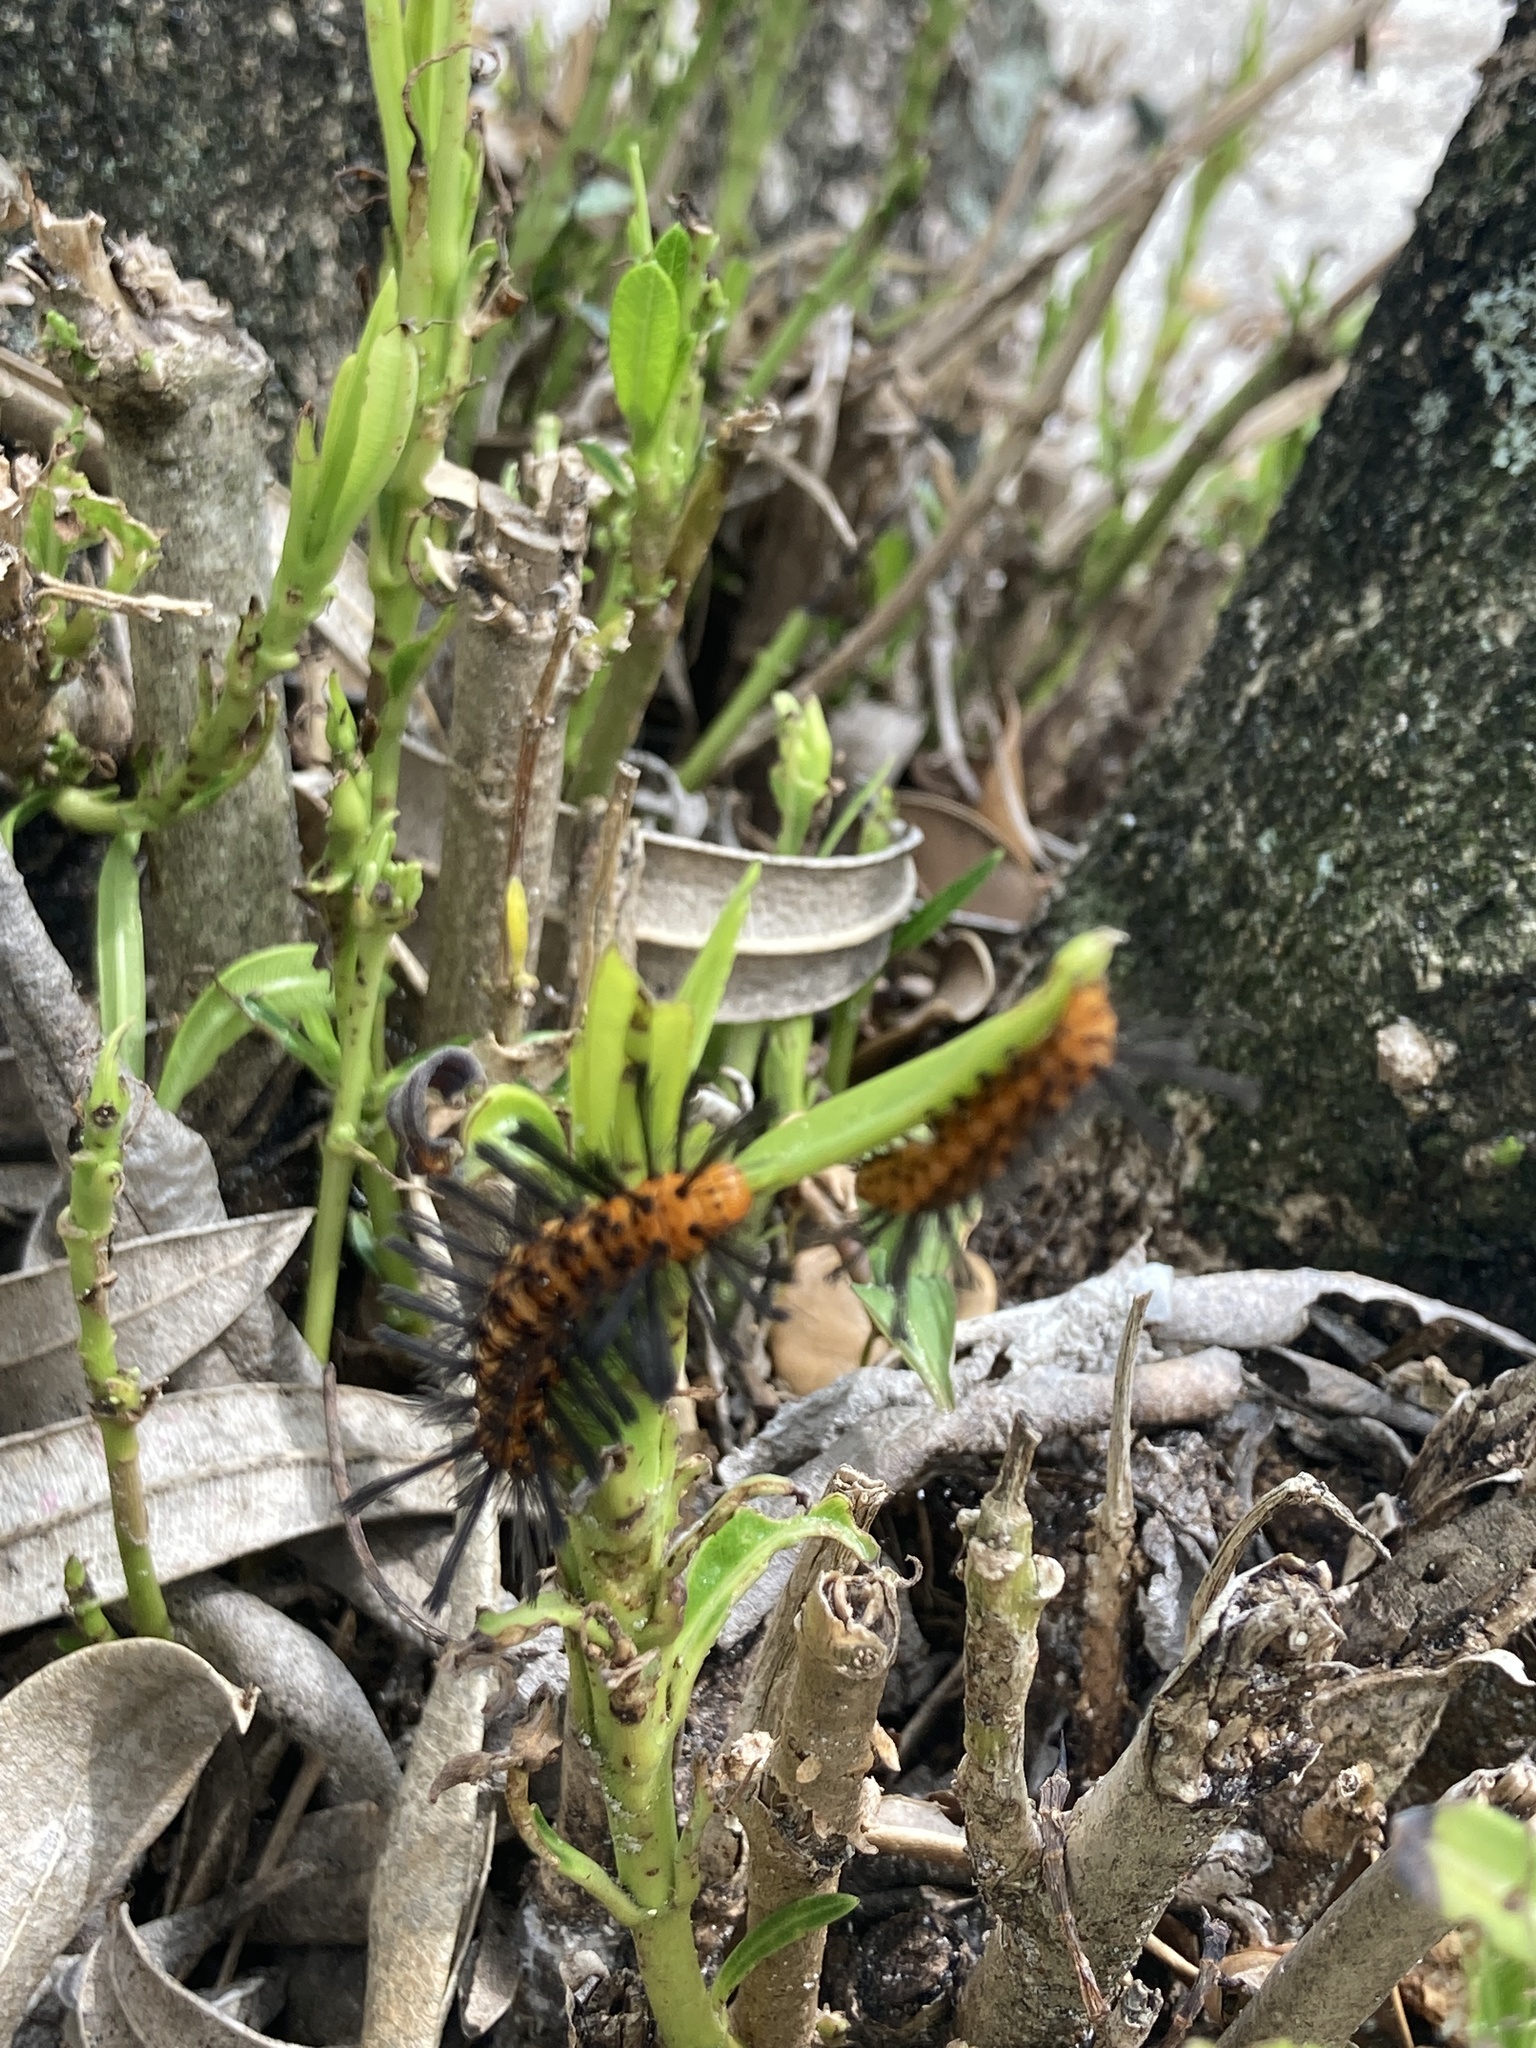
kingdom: Animalia
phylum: Arthropoda
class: Insecta
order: Lepidoptera
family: Erebidae
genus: Syntomeida
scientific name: Syntomeida epilais
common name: Polka-dot wasp moth
